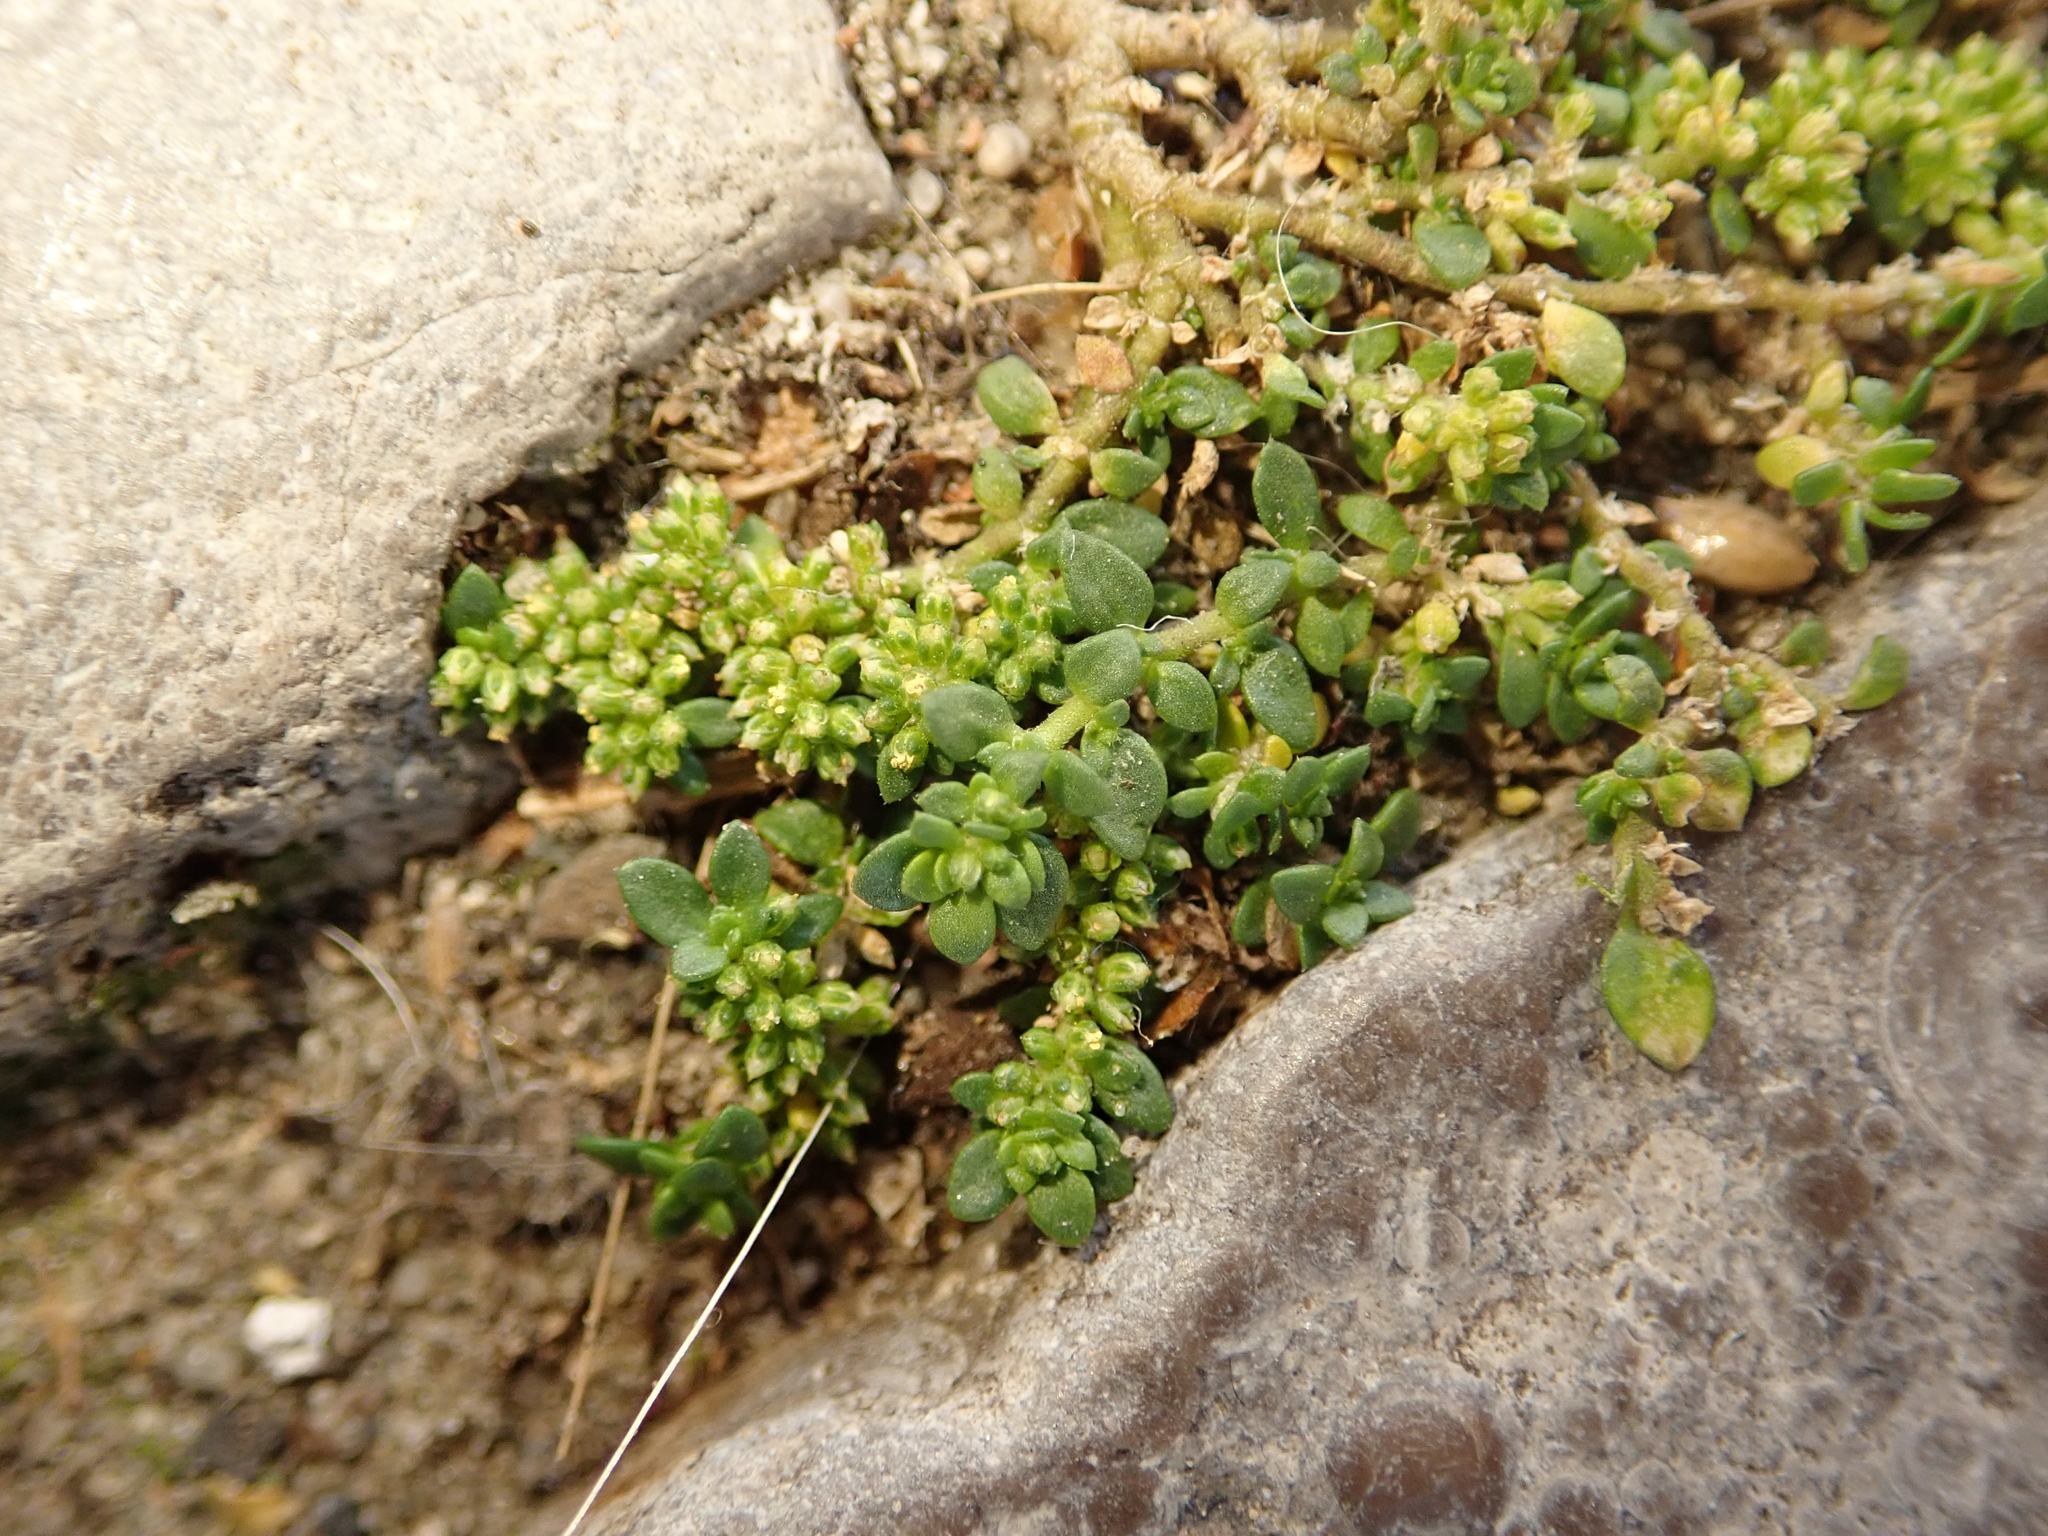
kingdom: Plantae
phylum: Tracheophyta
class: Magnoliopsida
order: Caryophyllales
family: Caryophyllaceae
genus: Herniaria
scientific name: Herniaria glabra
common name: Smooth rupturewort
